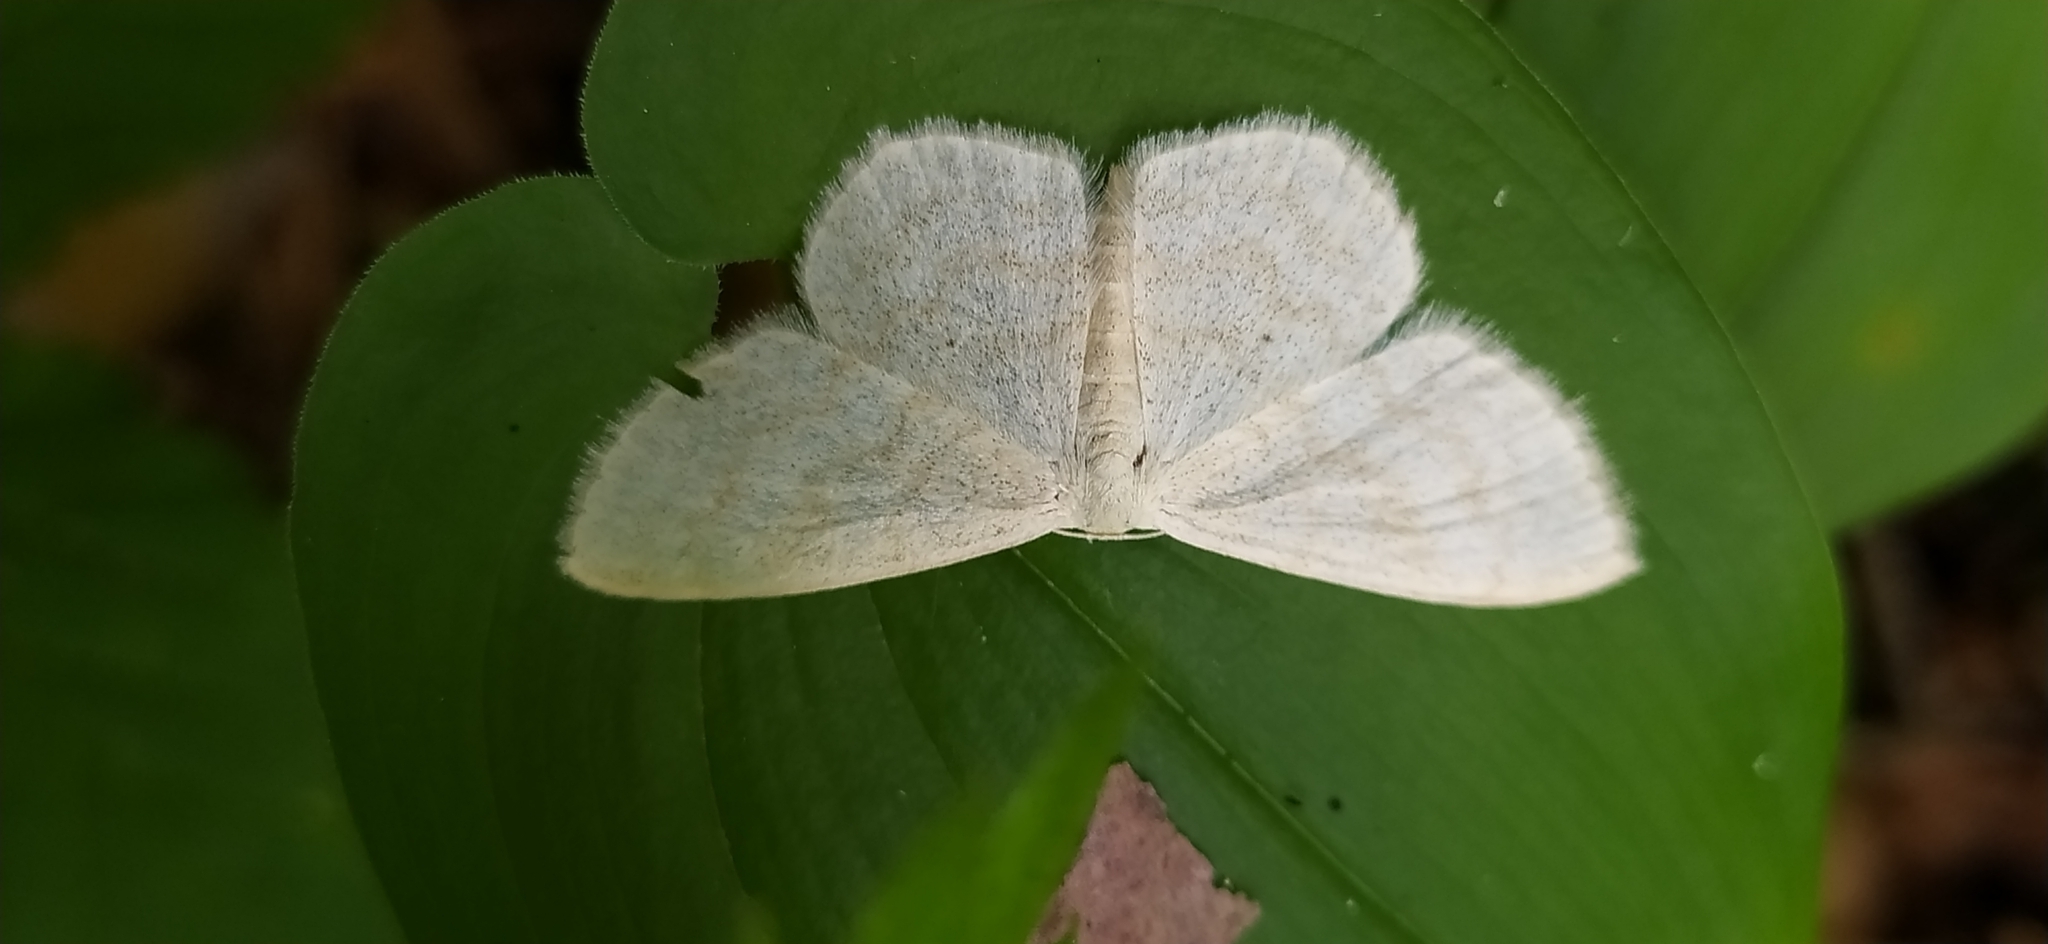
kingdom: Animalia
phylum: Arthropoda
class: Insecta
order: Lepidoptera
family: Geometridae
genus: Scopula
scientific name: Scopula floslactata
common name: Cream wave
